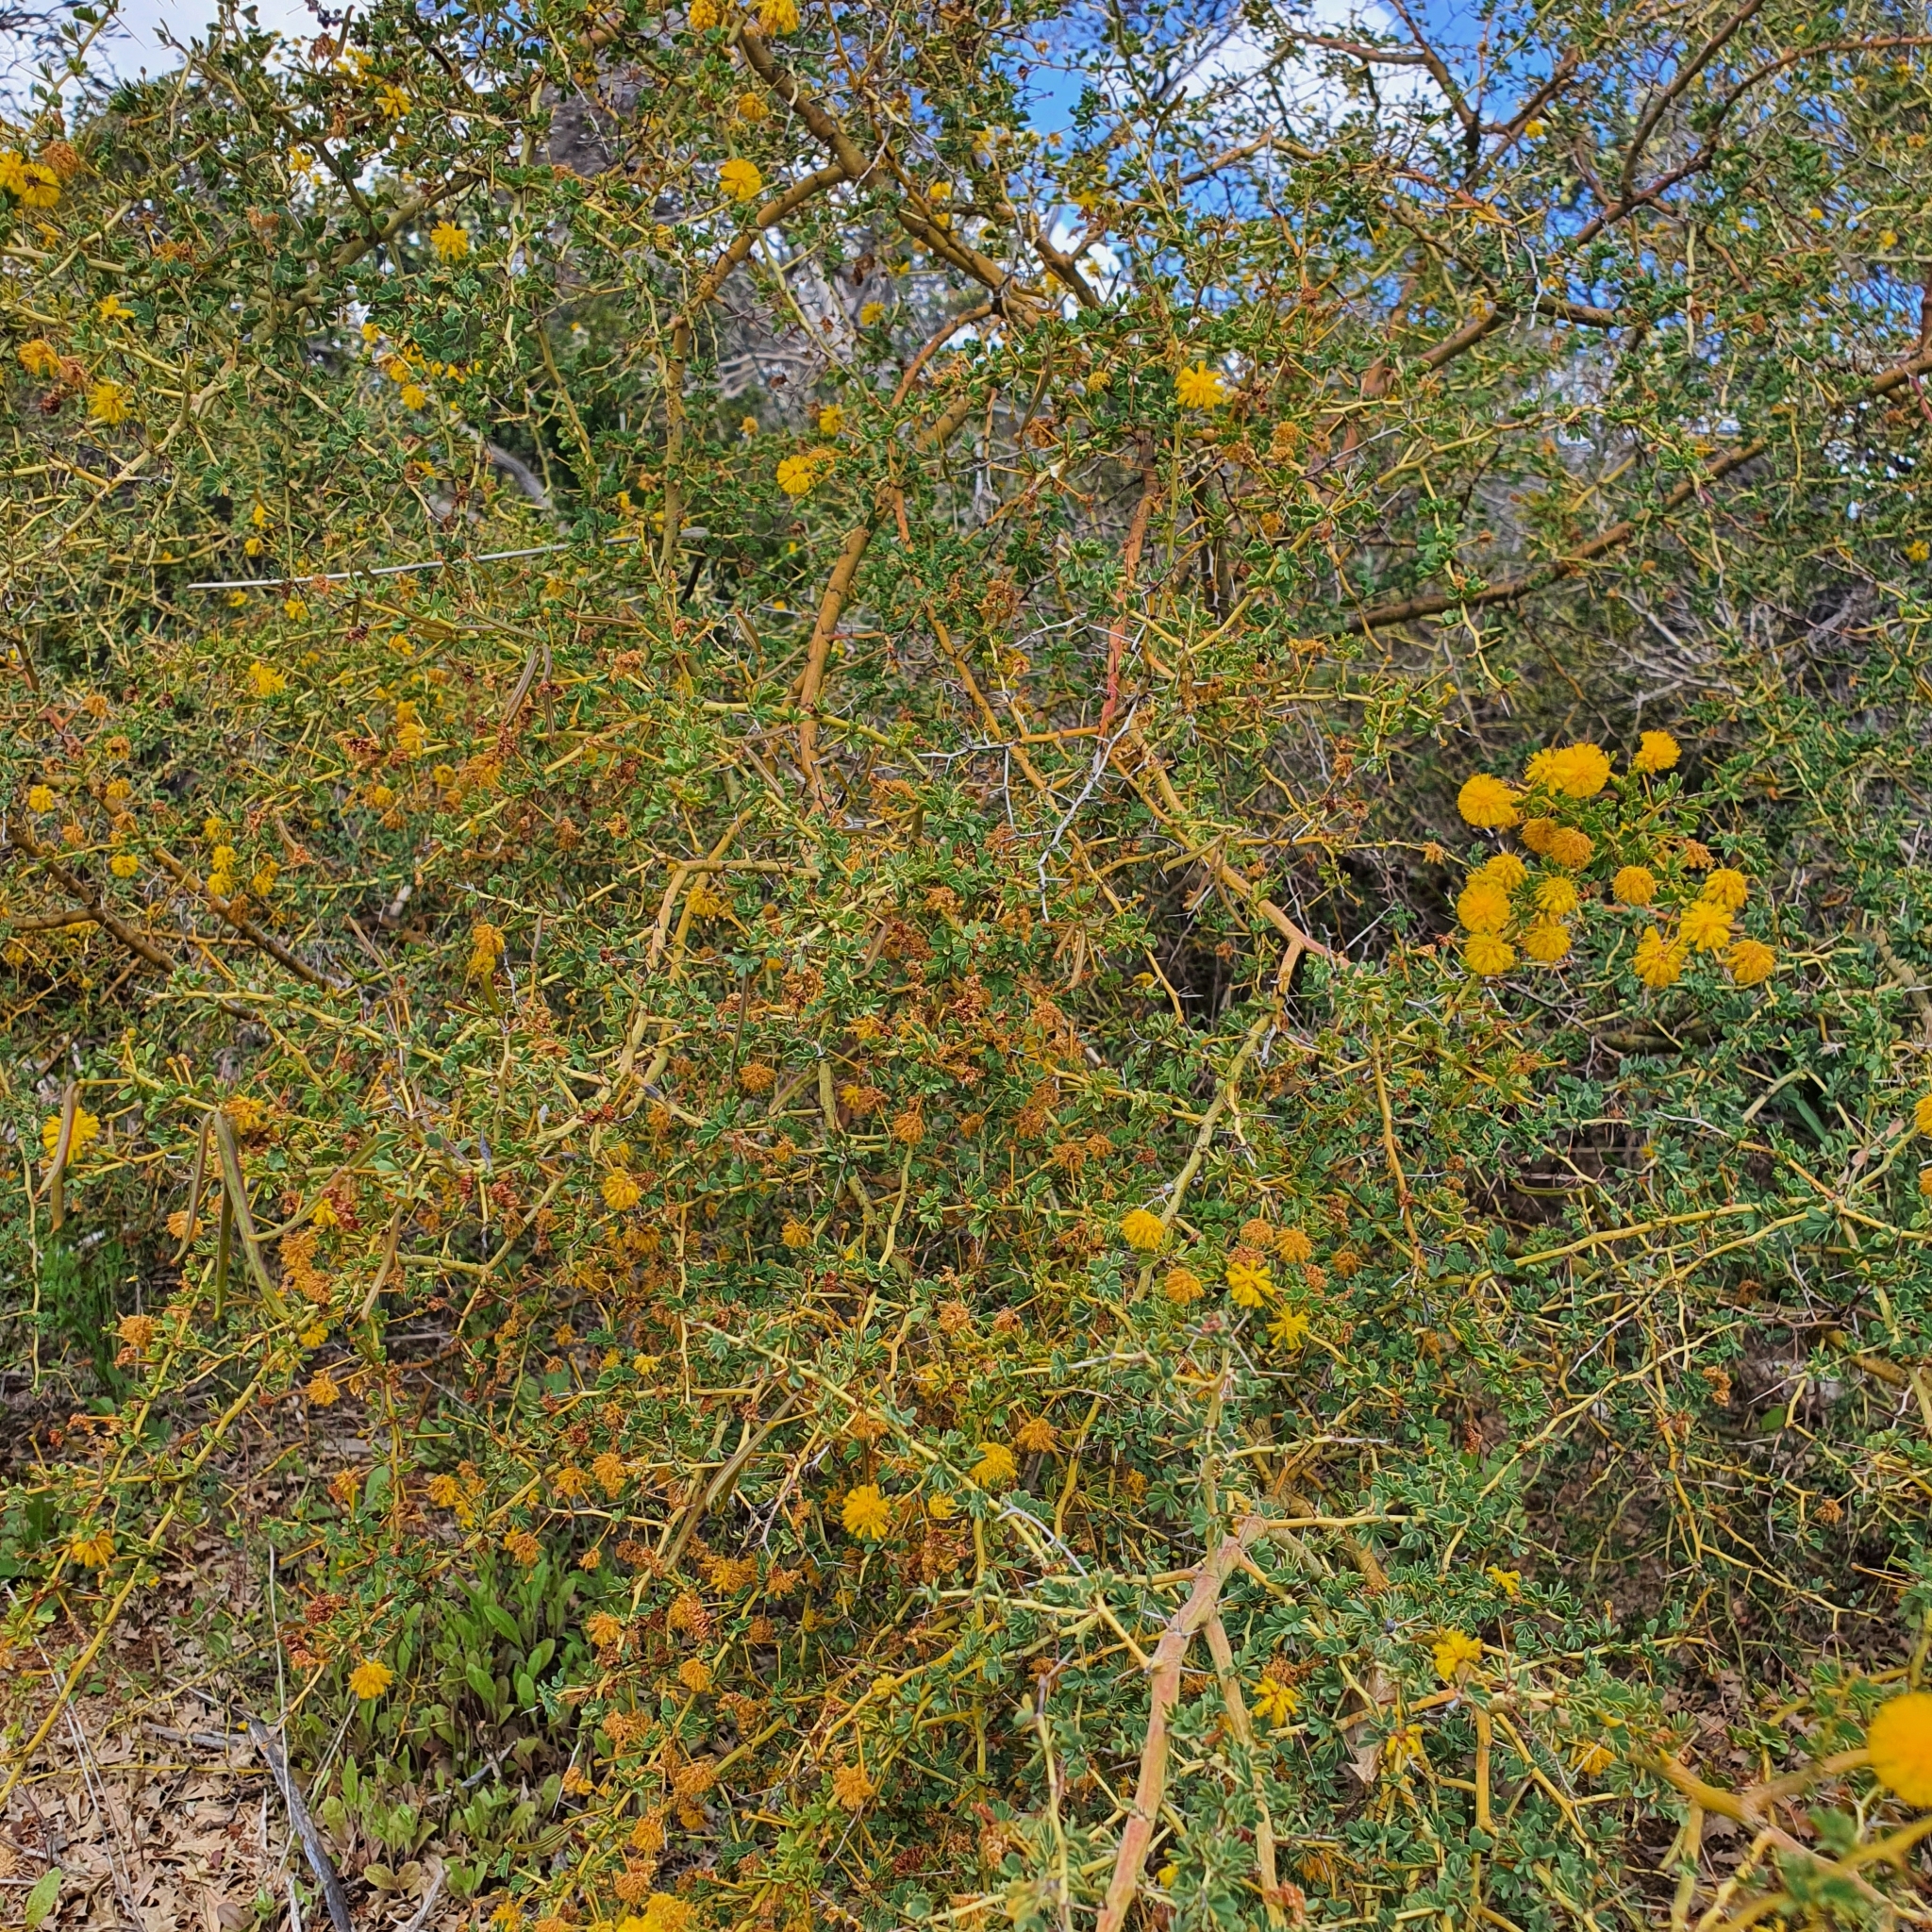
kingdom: Plantae
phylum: Tracheophyta
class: Magnoliopsida
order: Fabales
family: Fabaceae
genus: Acacia
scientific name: Acacia pulchella
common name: Prickly moses
